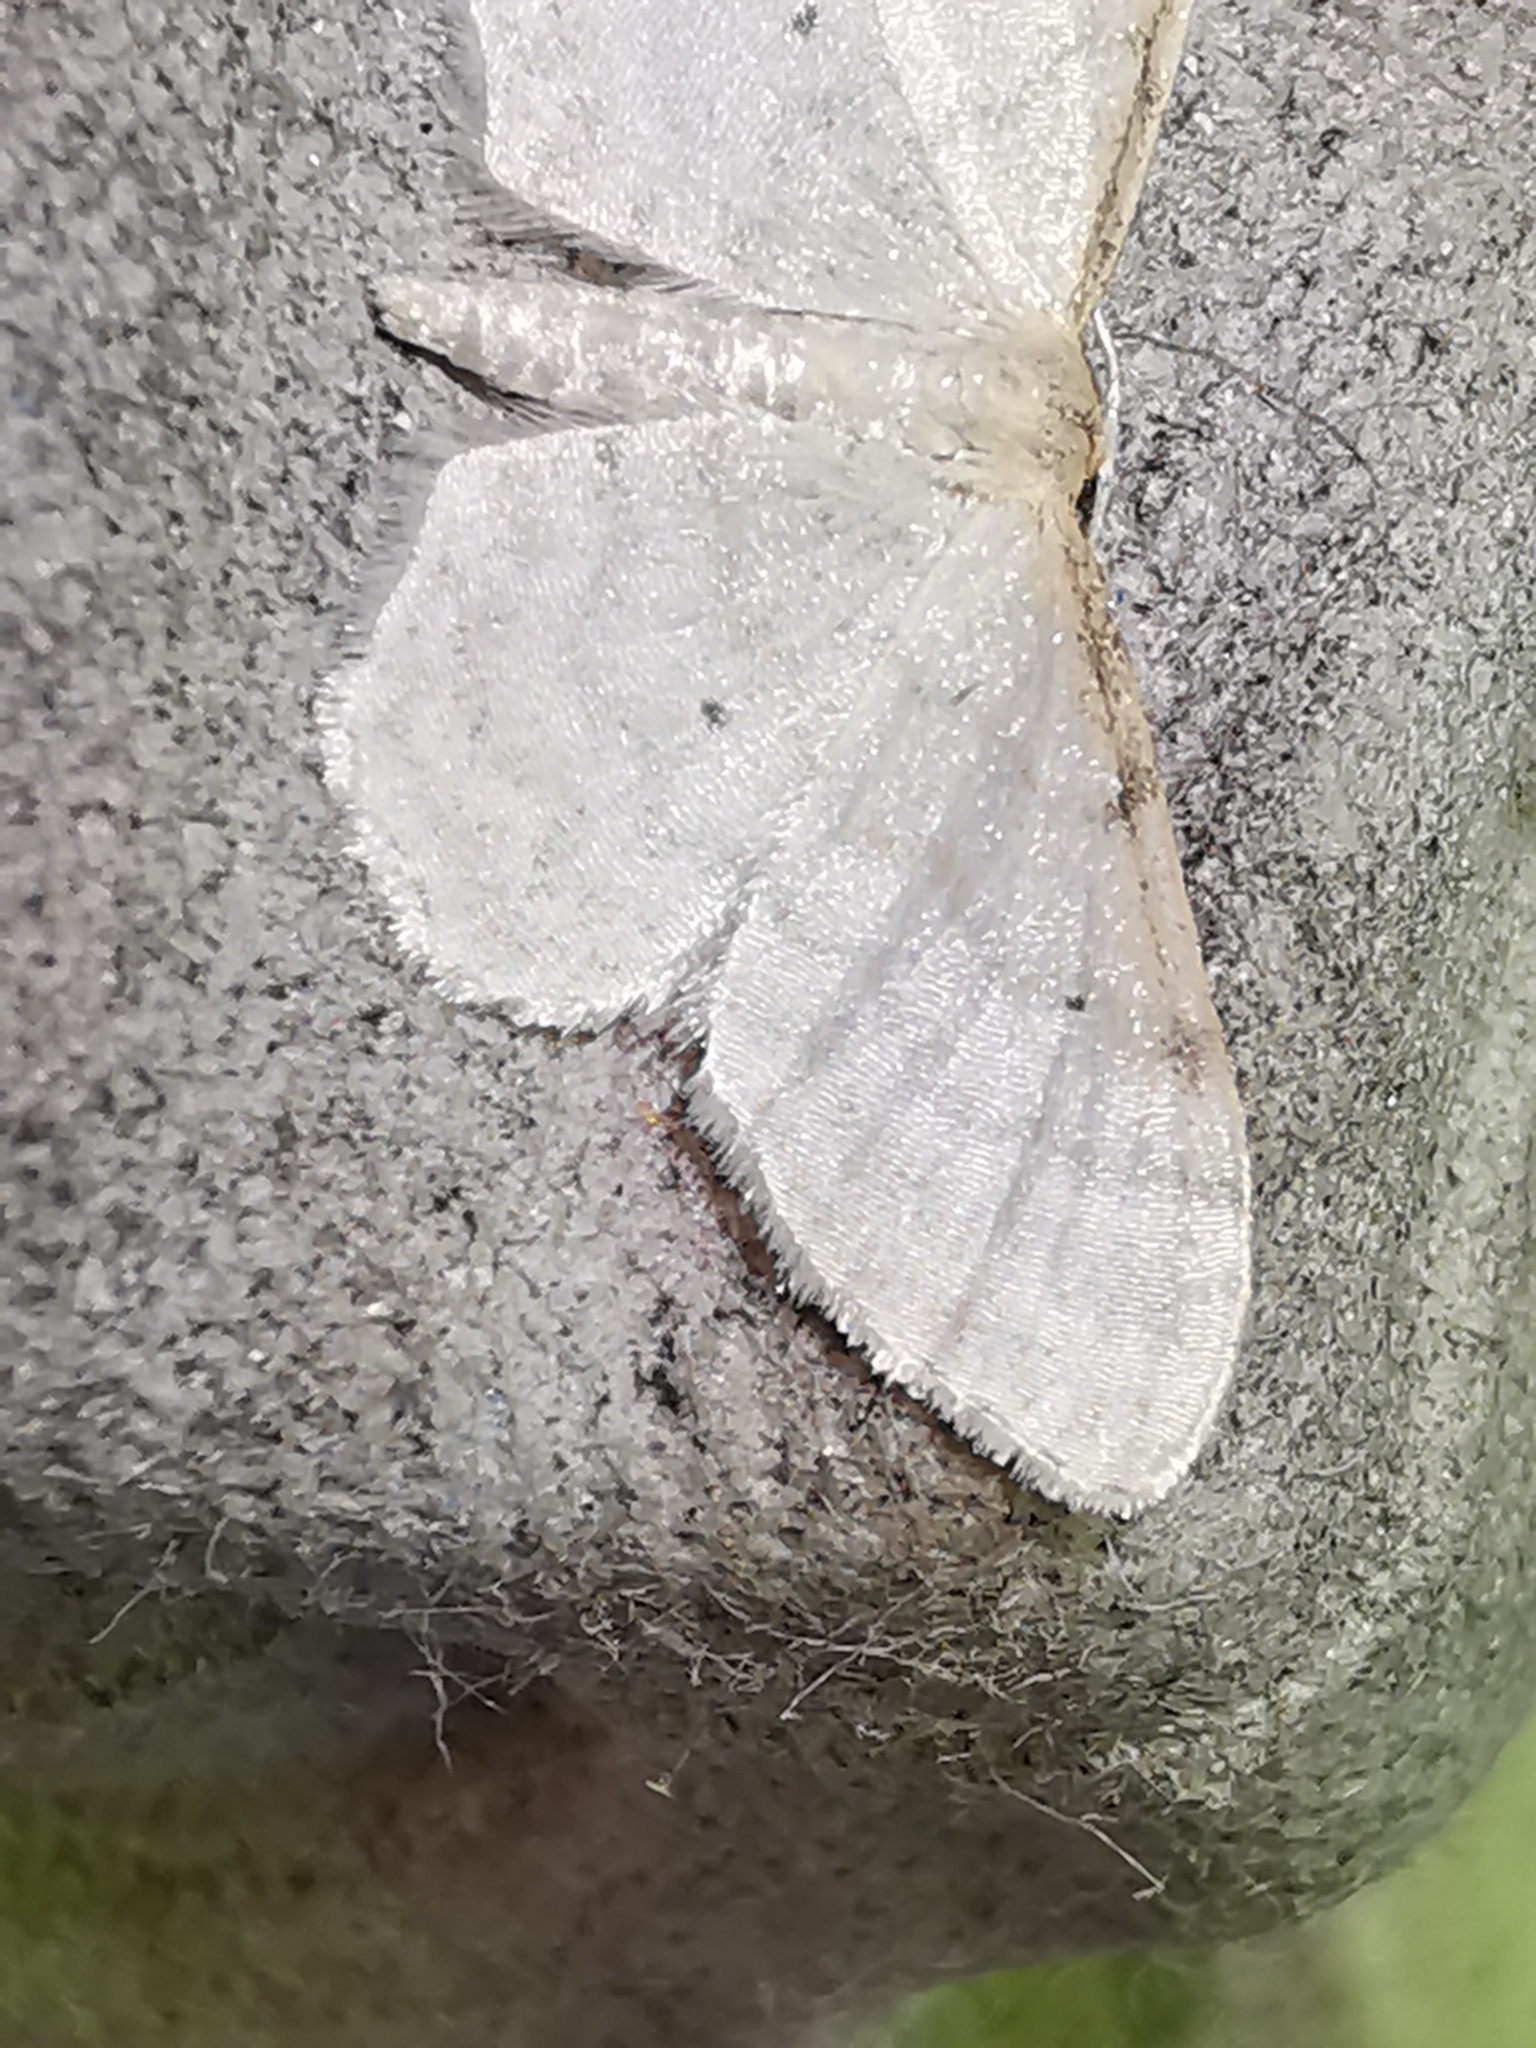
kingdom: Animalia
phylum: Arthropoda
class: Insecta
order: Lepidoptera
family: Geometridae
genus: Idaea
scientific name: Idaea fuscovenosa
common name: Dwarf cream wave
